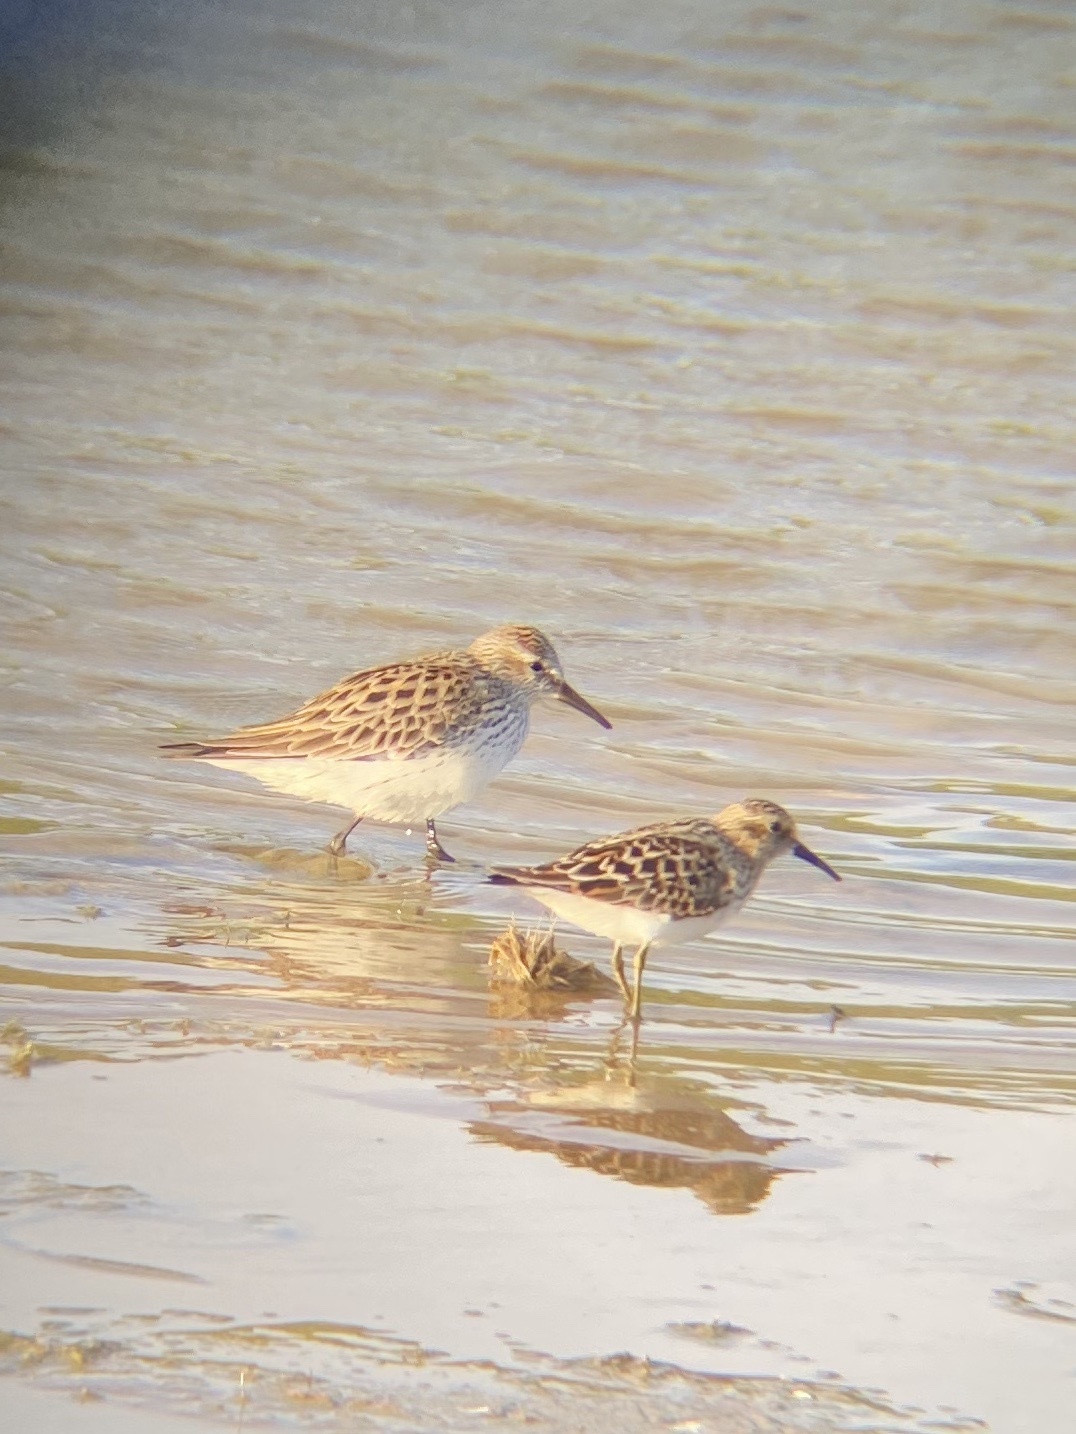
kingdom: Animalia
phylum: Chordata
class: Aves
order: Charadriiformes
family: Scolopacidae
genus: Calidris
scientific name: Calidris fuscicollis
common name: White-rumped sandpiper
